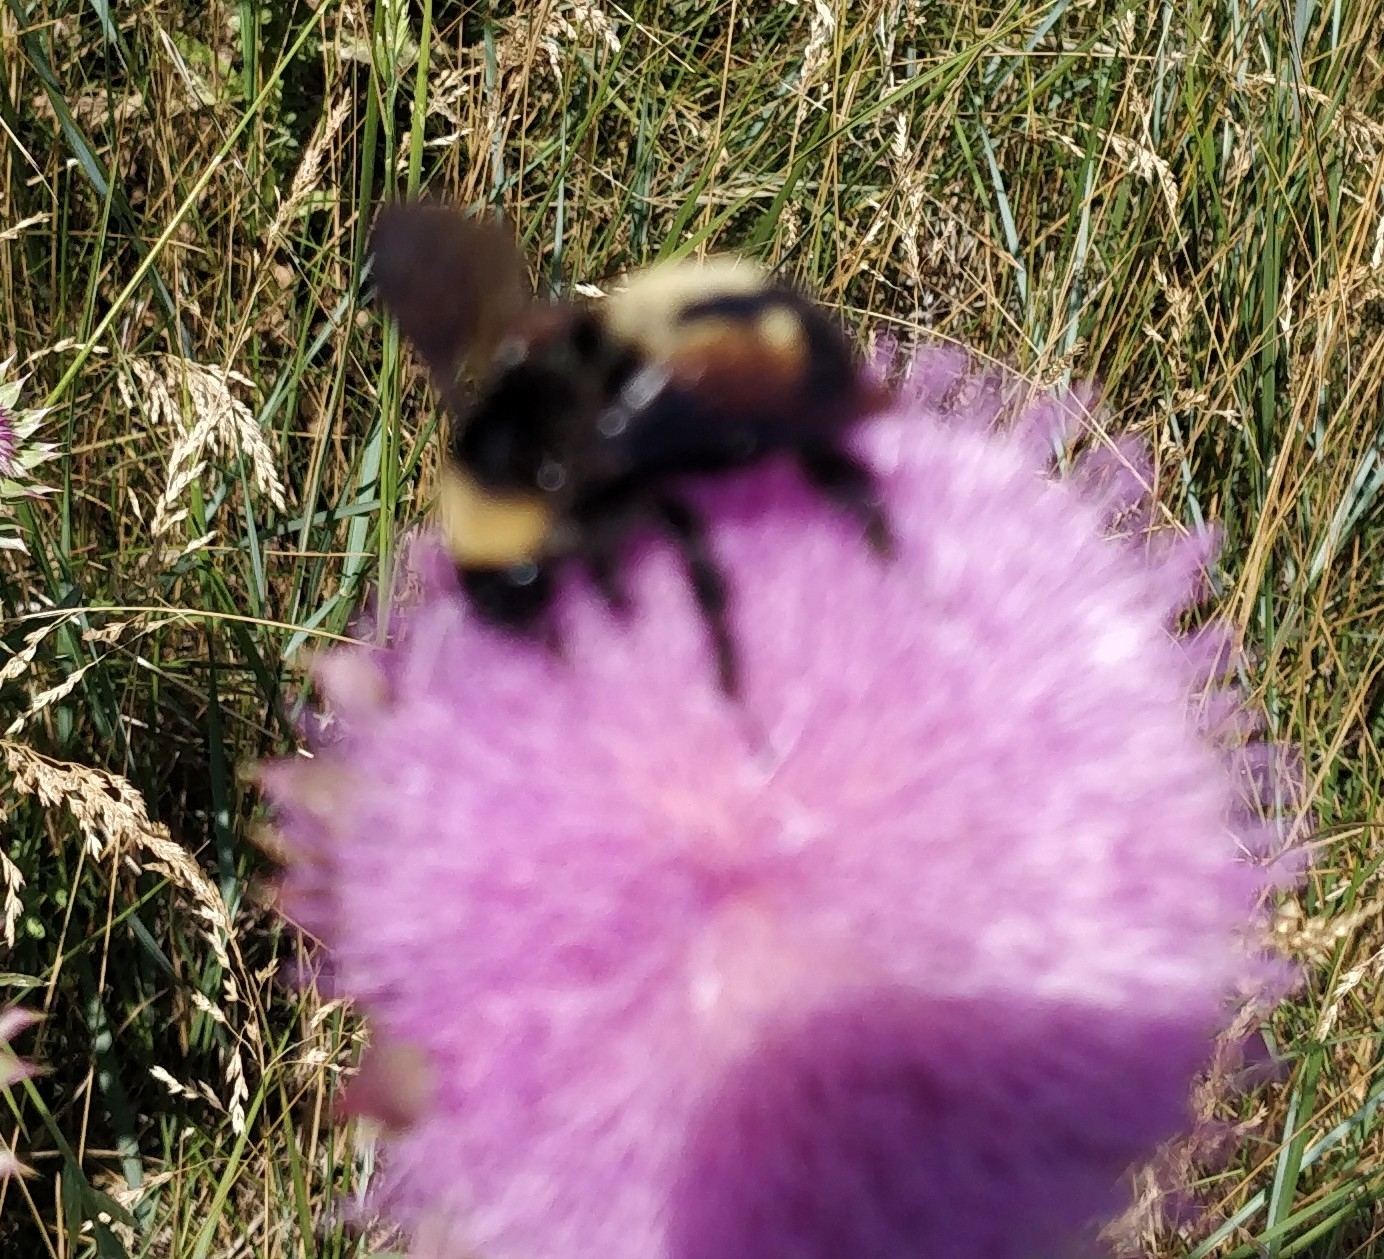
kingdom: Animalia
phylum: Arthropoda
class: Insecta
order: Hymenoptera
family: Apidae
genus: Bombus
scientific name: Bombus pensylvanicus
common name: Bumble bee
